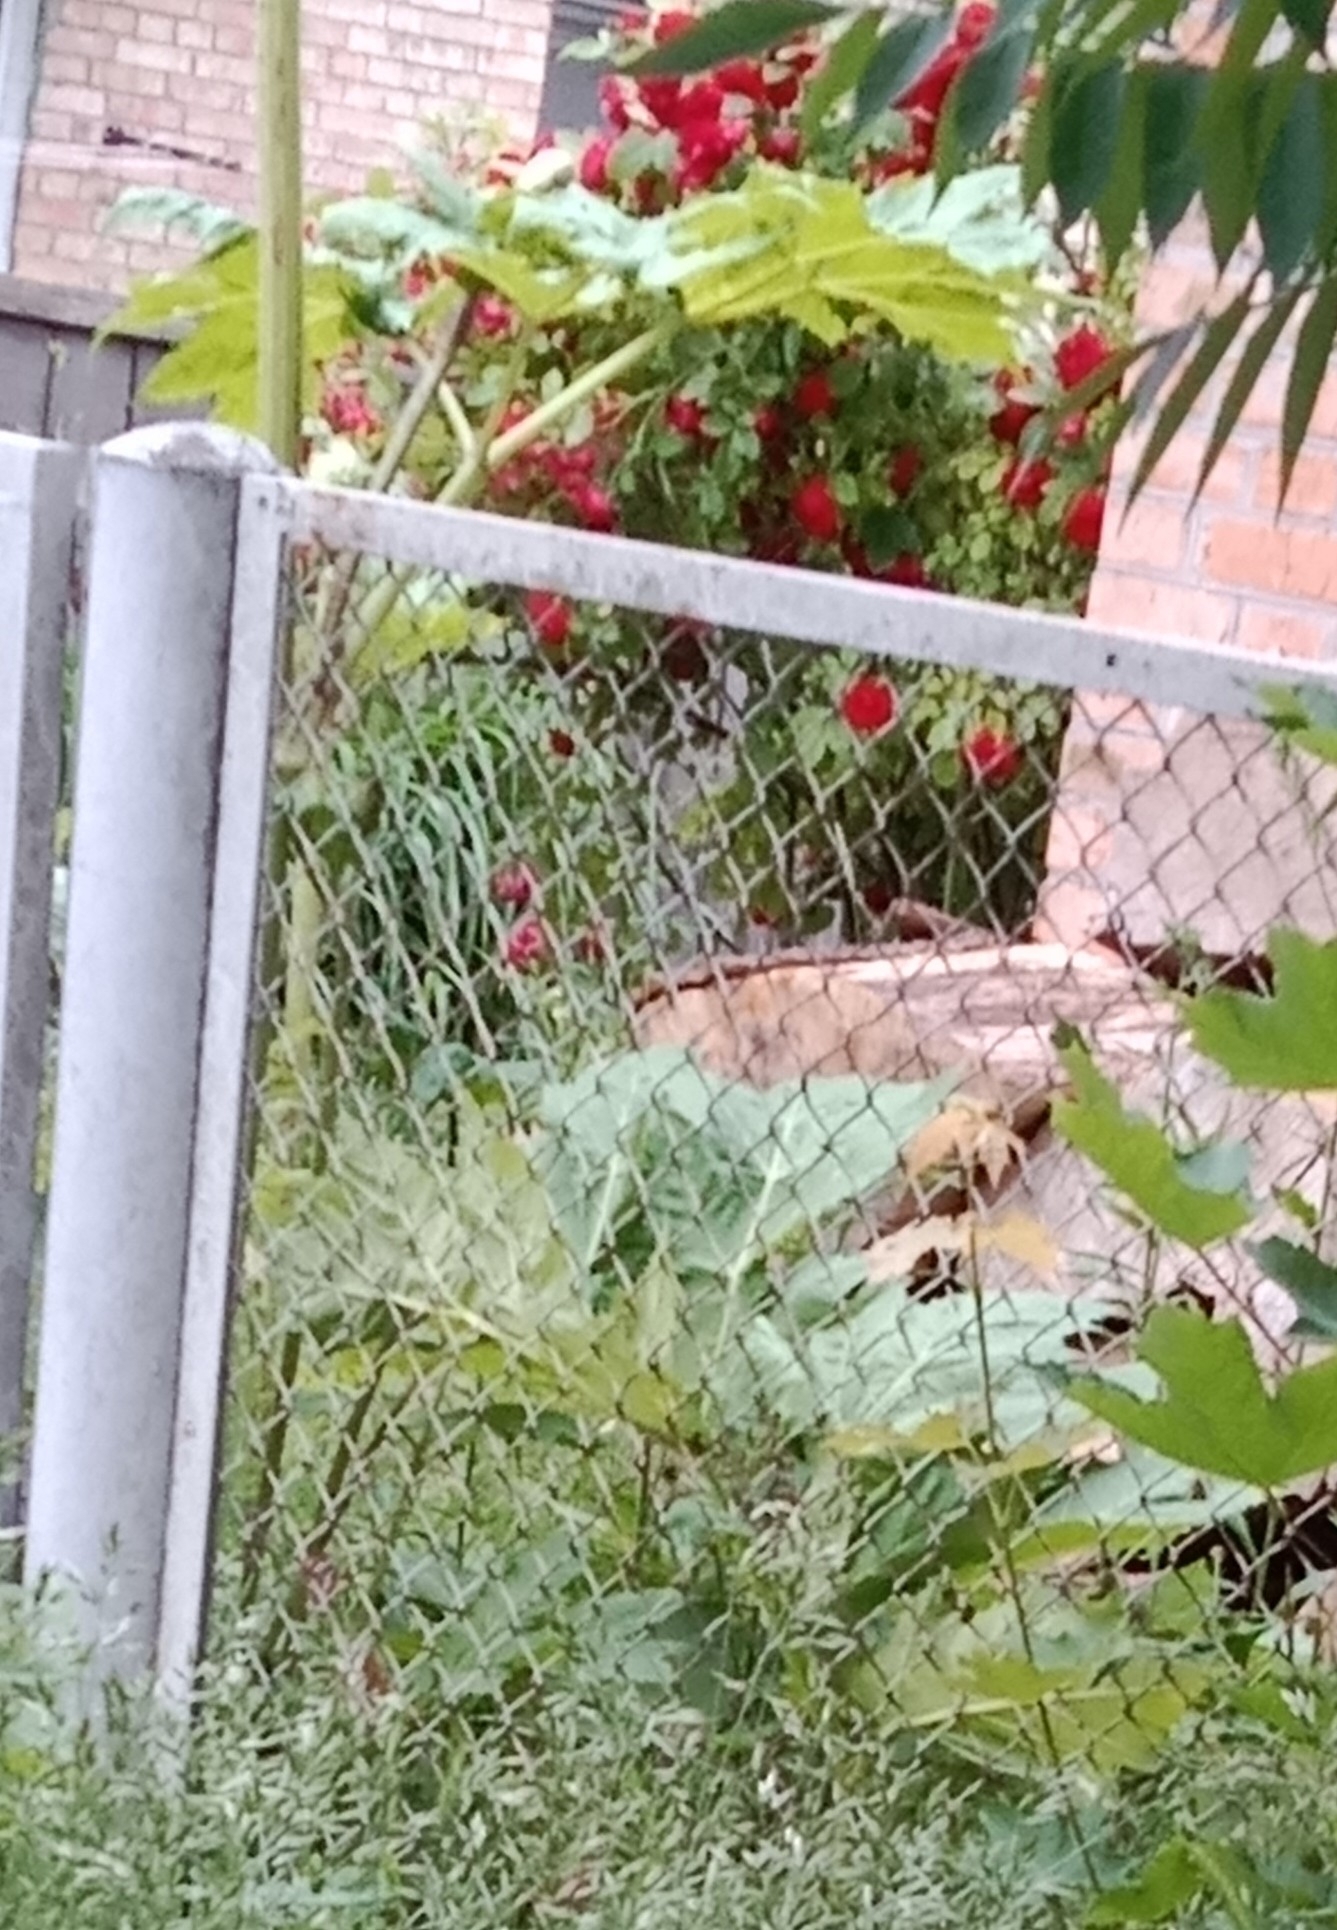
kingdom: Plantae
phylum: Tracheophyta
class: Magnoliopsida
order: Apiales
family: Apiaceae
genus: Heracleum
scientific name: Heracleum sosnowskyi
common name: Sosnowsky's hogweed
